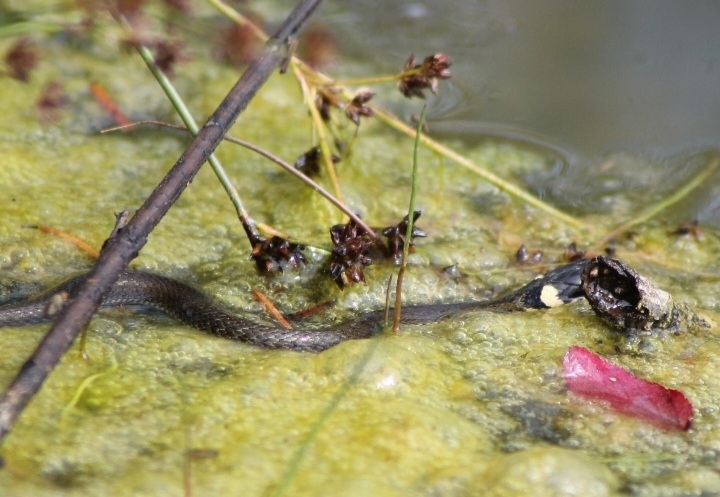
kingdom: Animalia
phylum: Chordata
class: Squamata
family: Colubridae
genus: Natrix
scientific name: Natrix natrix
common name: Grass snake
